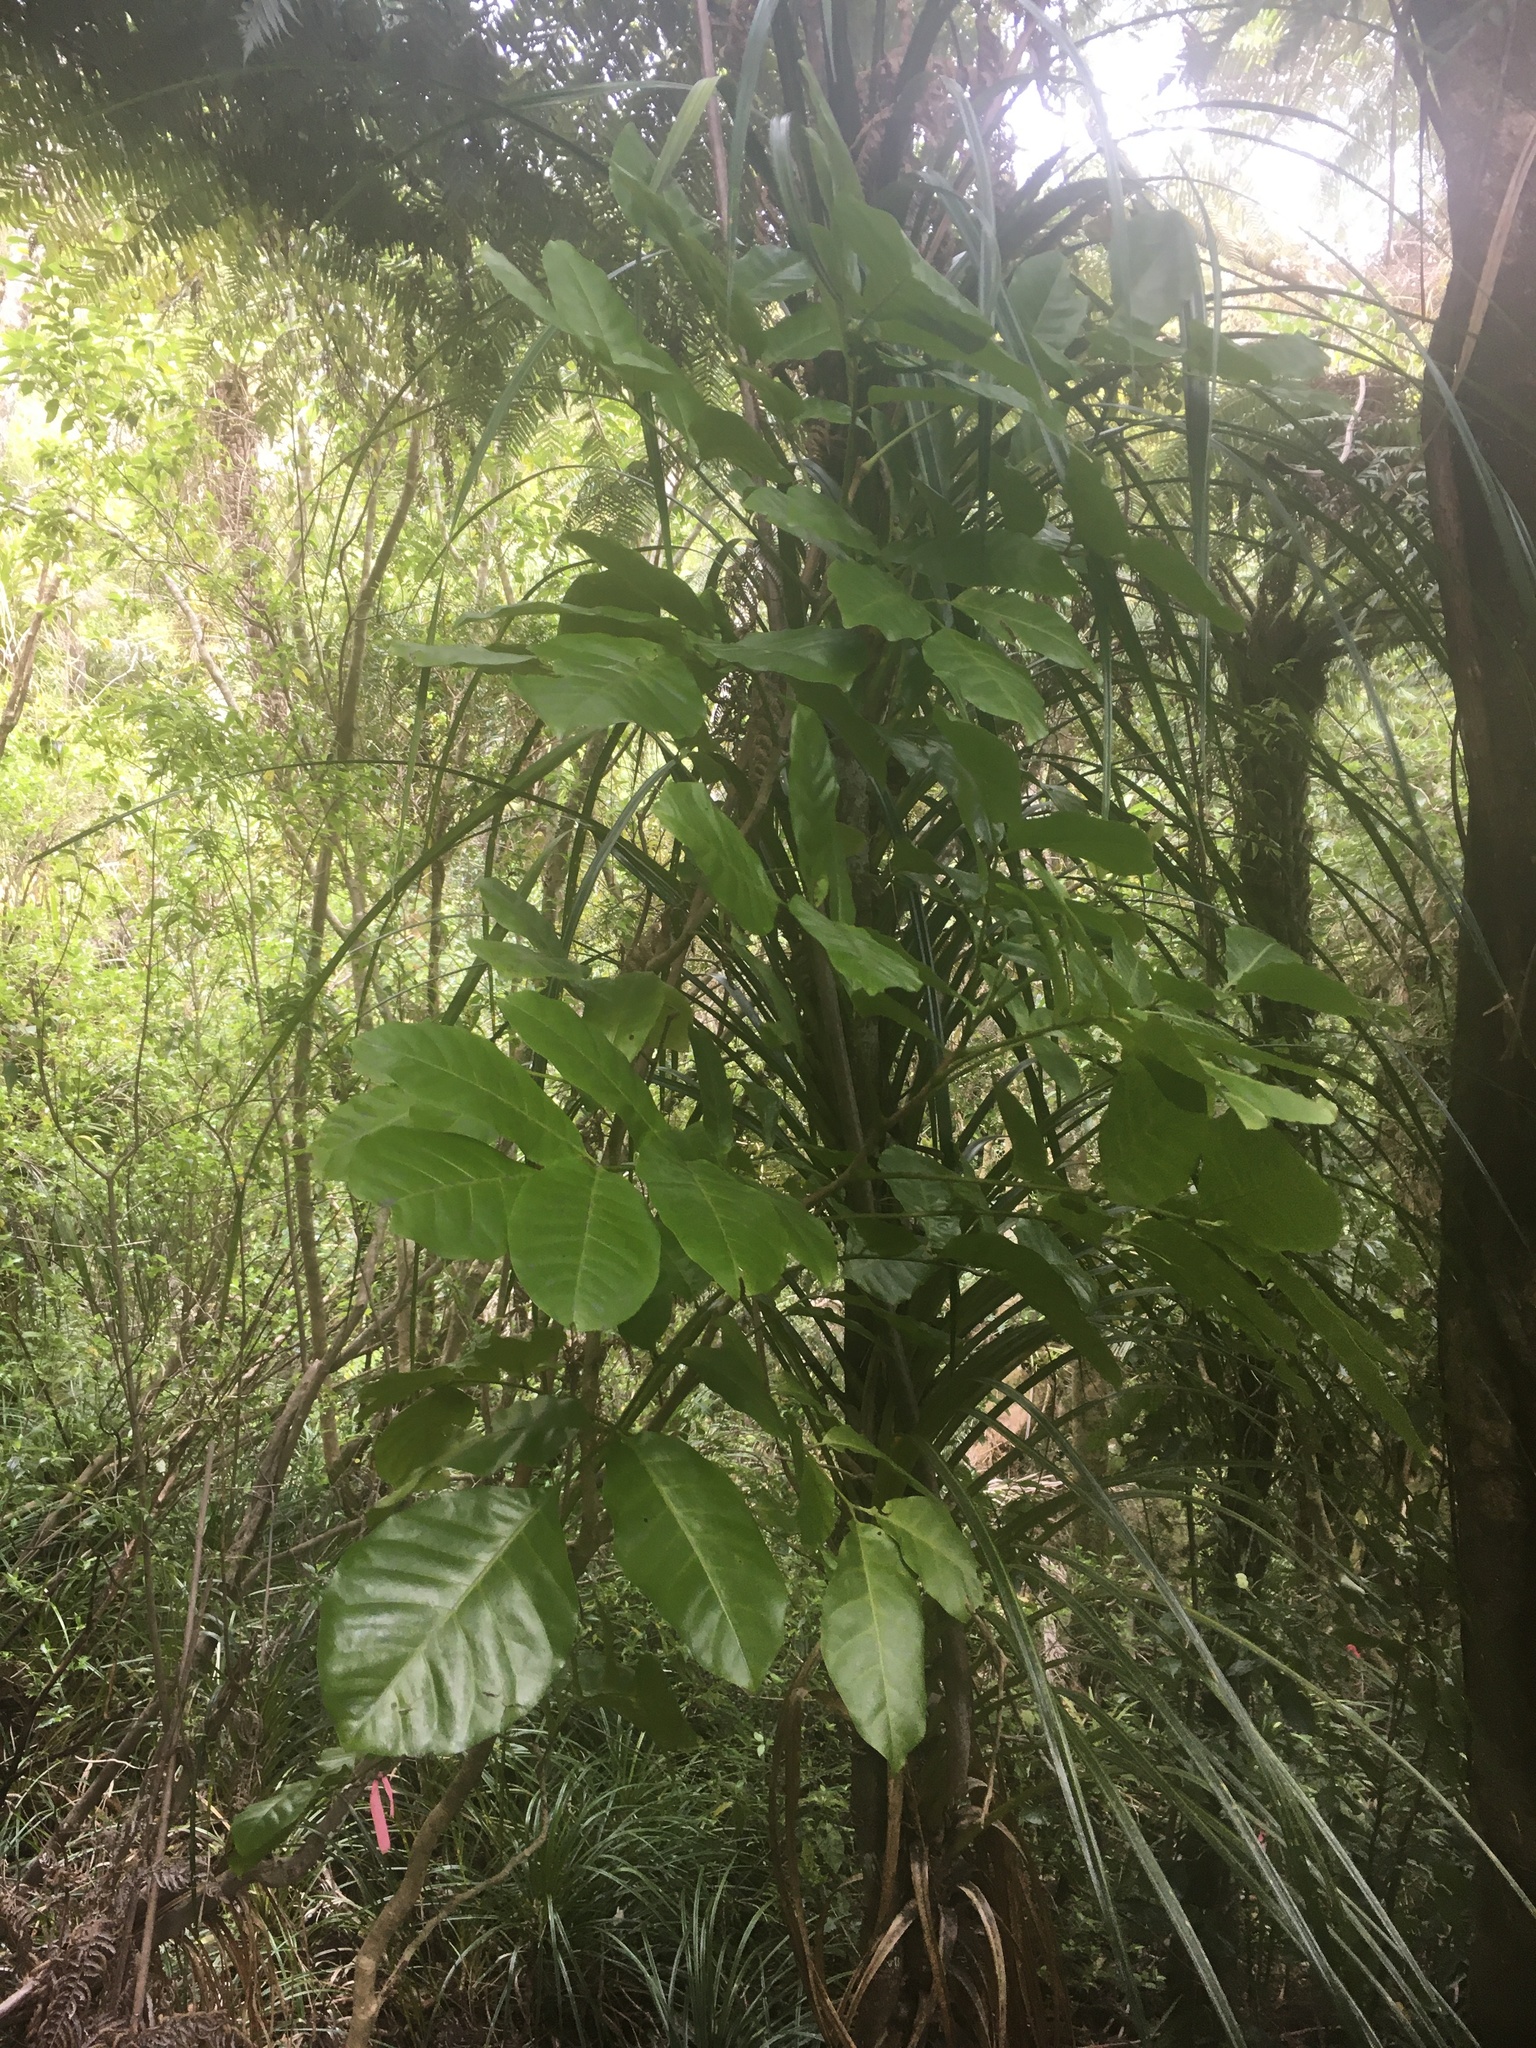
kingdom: Plantae
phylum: Tracheophyta
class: Magnoliopsida
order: Sapindales
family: Meliaceae
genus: Didymocheton
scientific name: Didymocheton spectabilis
